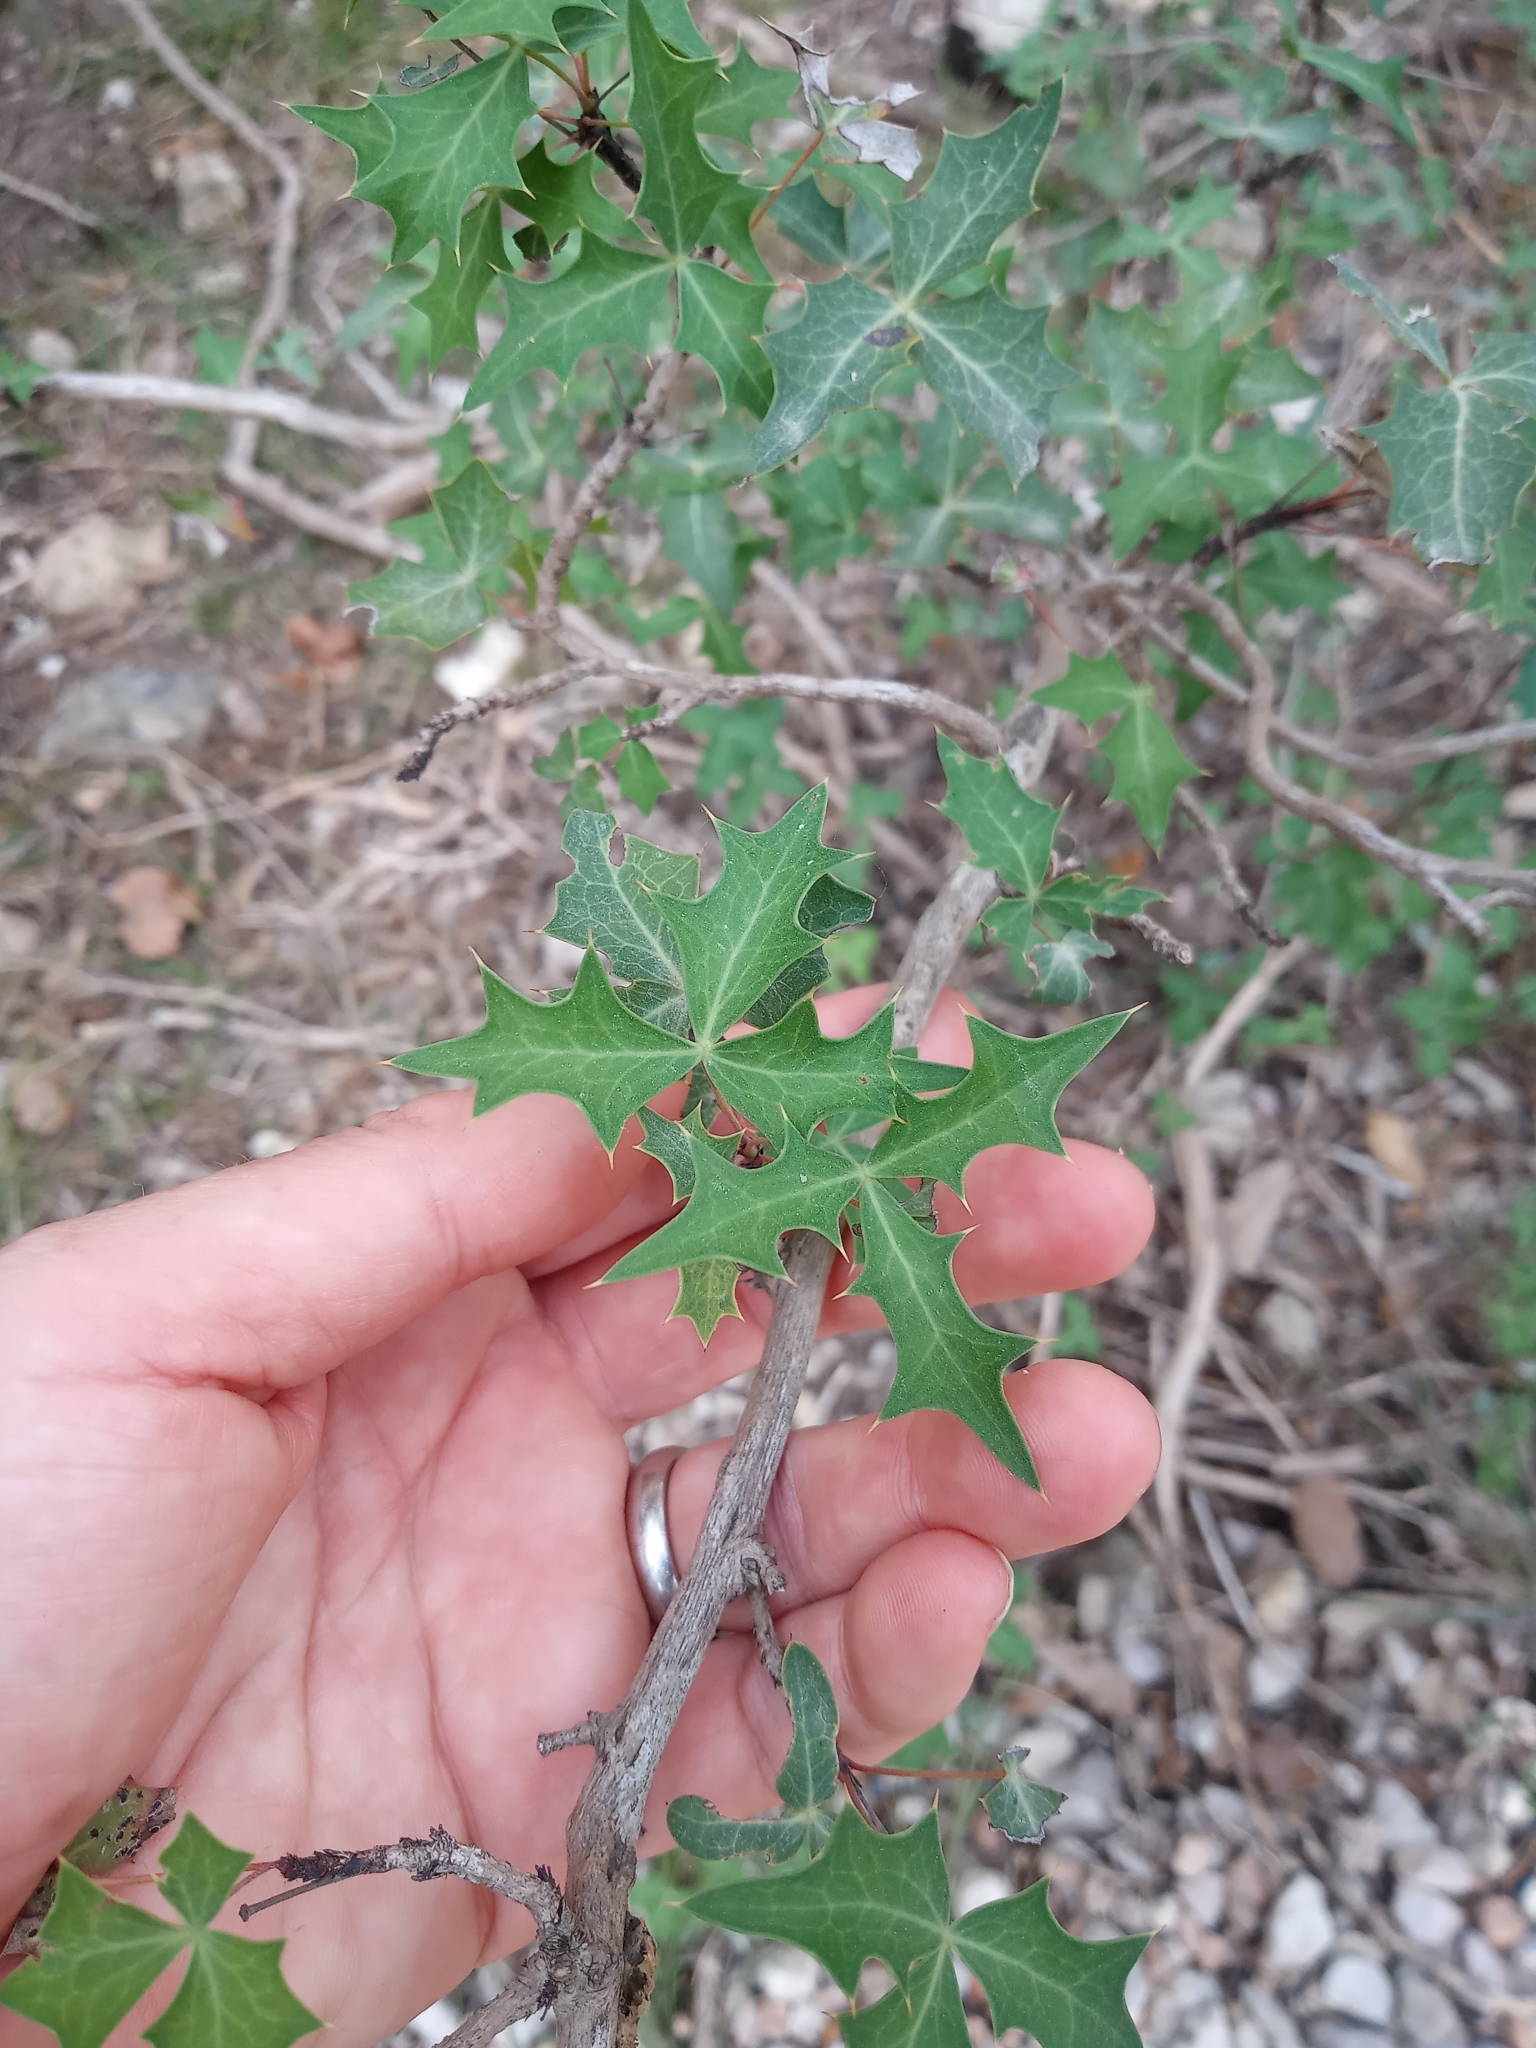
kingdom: Plantae
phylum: Tracheophyta
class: Magnoliopsida
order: Ranunculales
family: Berberidaceae
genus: Alloberberis
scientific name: Alloberberis trifoliolata
